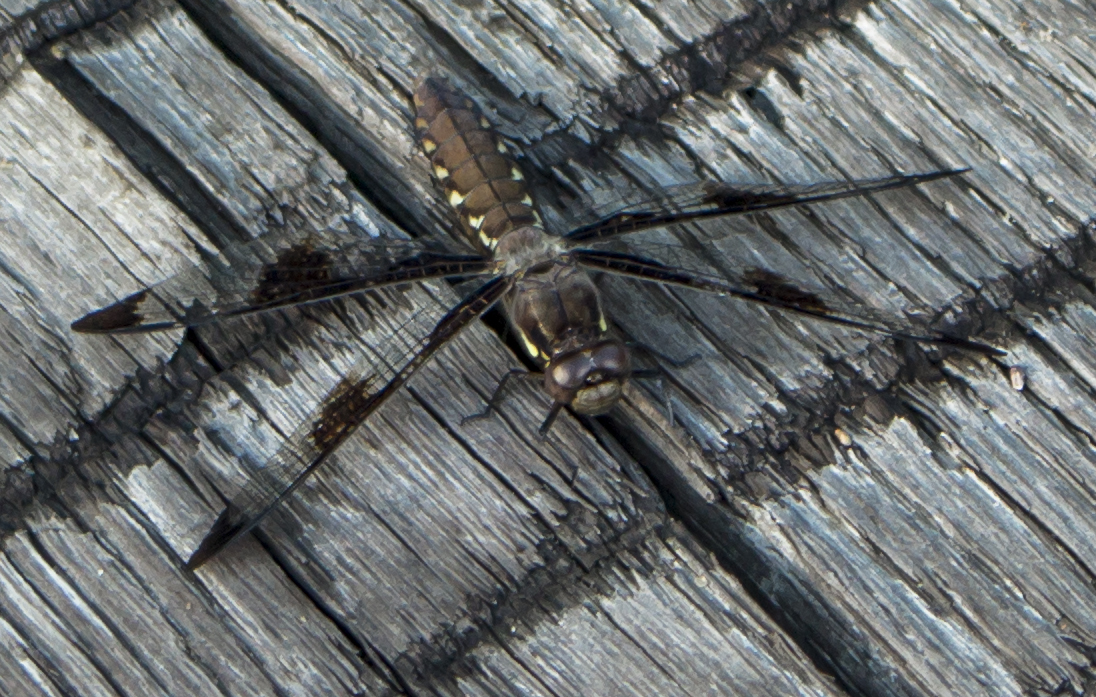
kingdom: Animalia
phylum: Arthropoda
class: Insecta
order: Odonata
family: Libellulidae
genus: Plathemis
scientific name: Plathemis lydia
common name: Common whitetail
